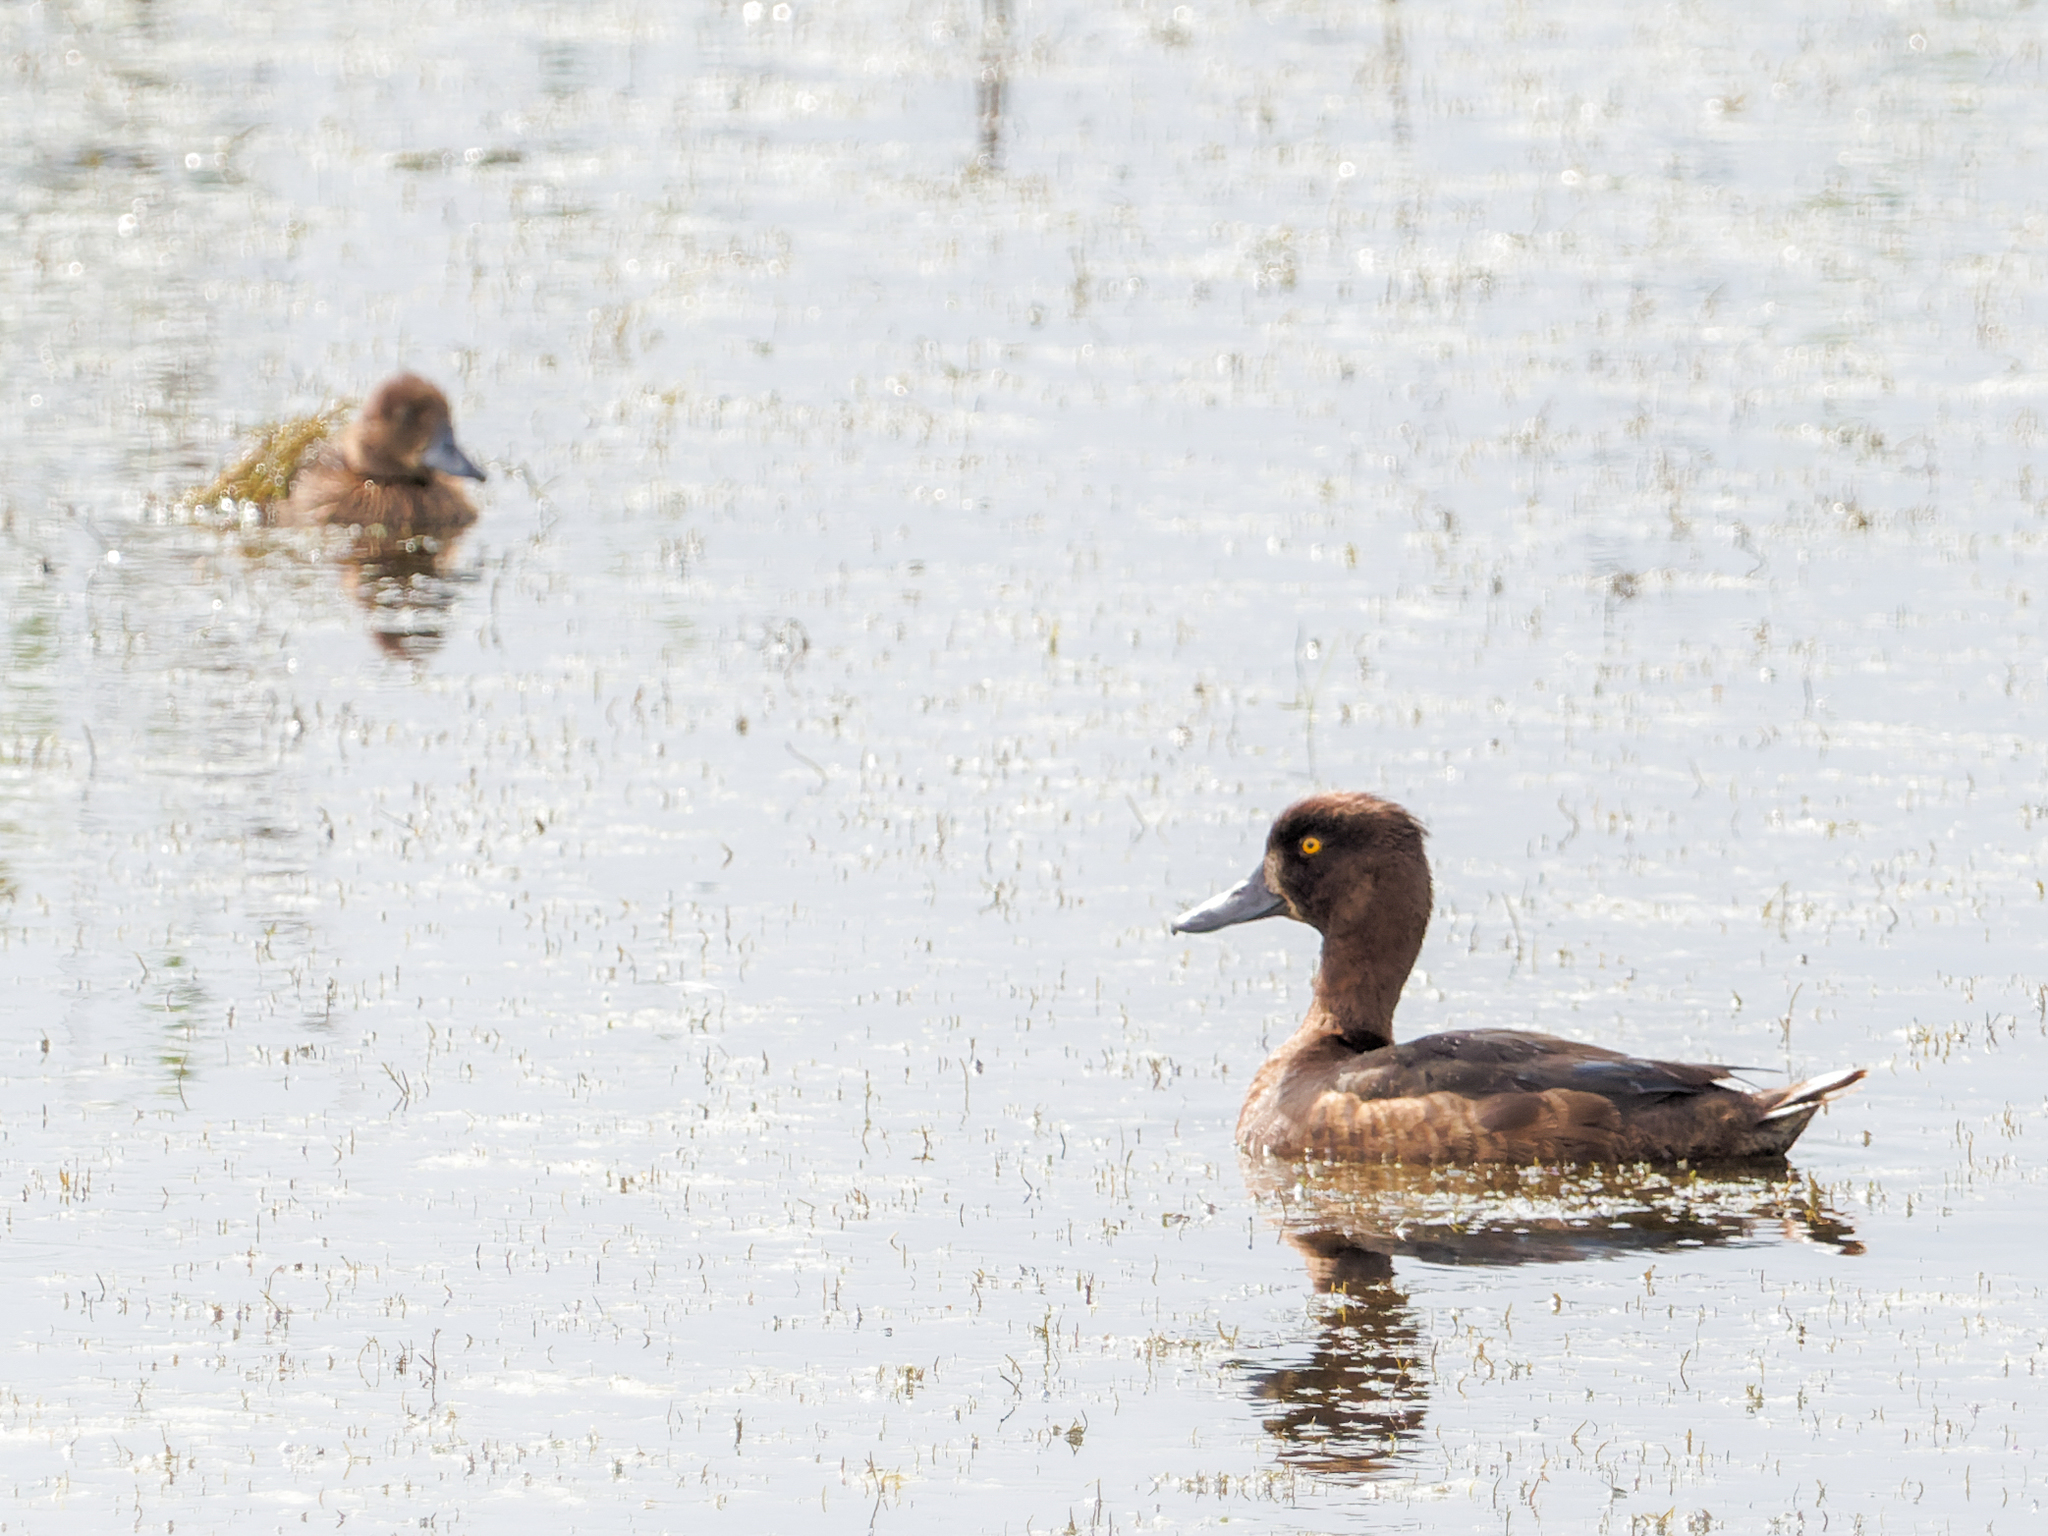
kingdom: Animalia
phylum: Chordata
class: Aves
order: Anseriformes
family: Anatidae
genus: Aythya
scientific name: Aythya fuligula
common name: Tufted duck
